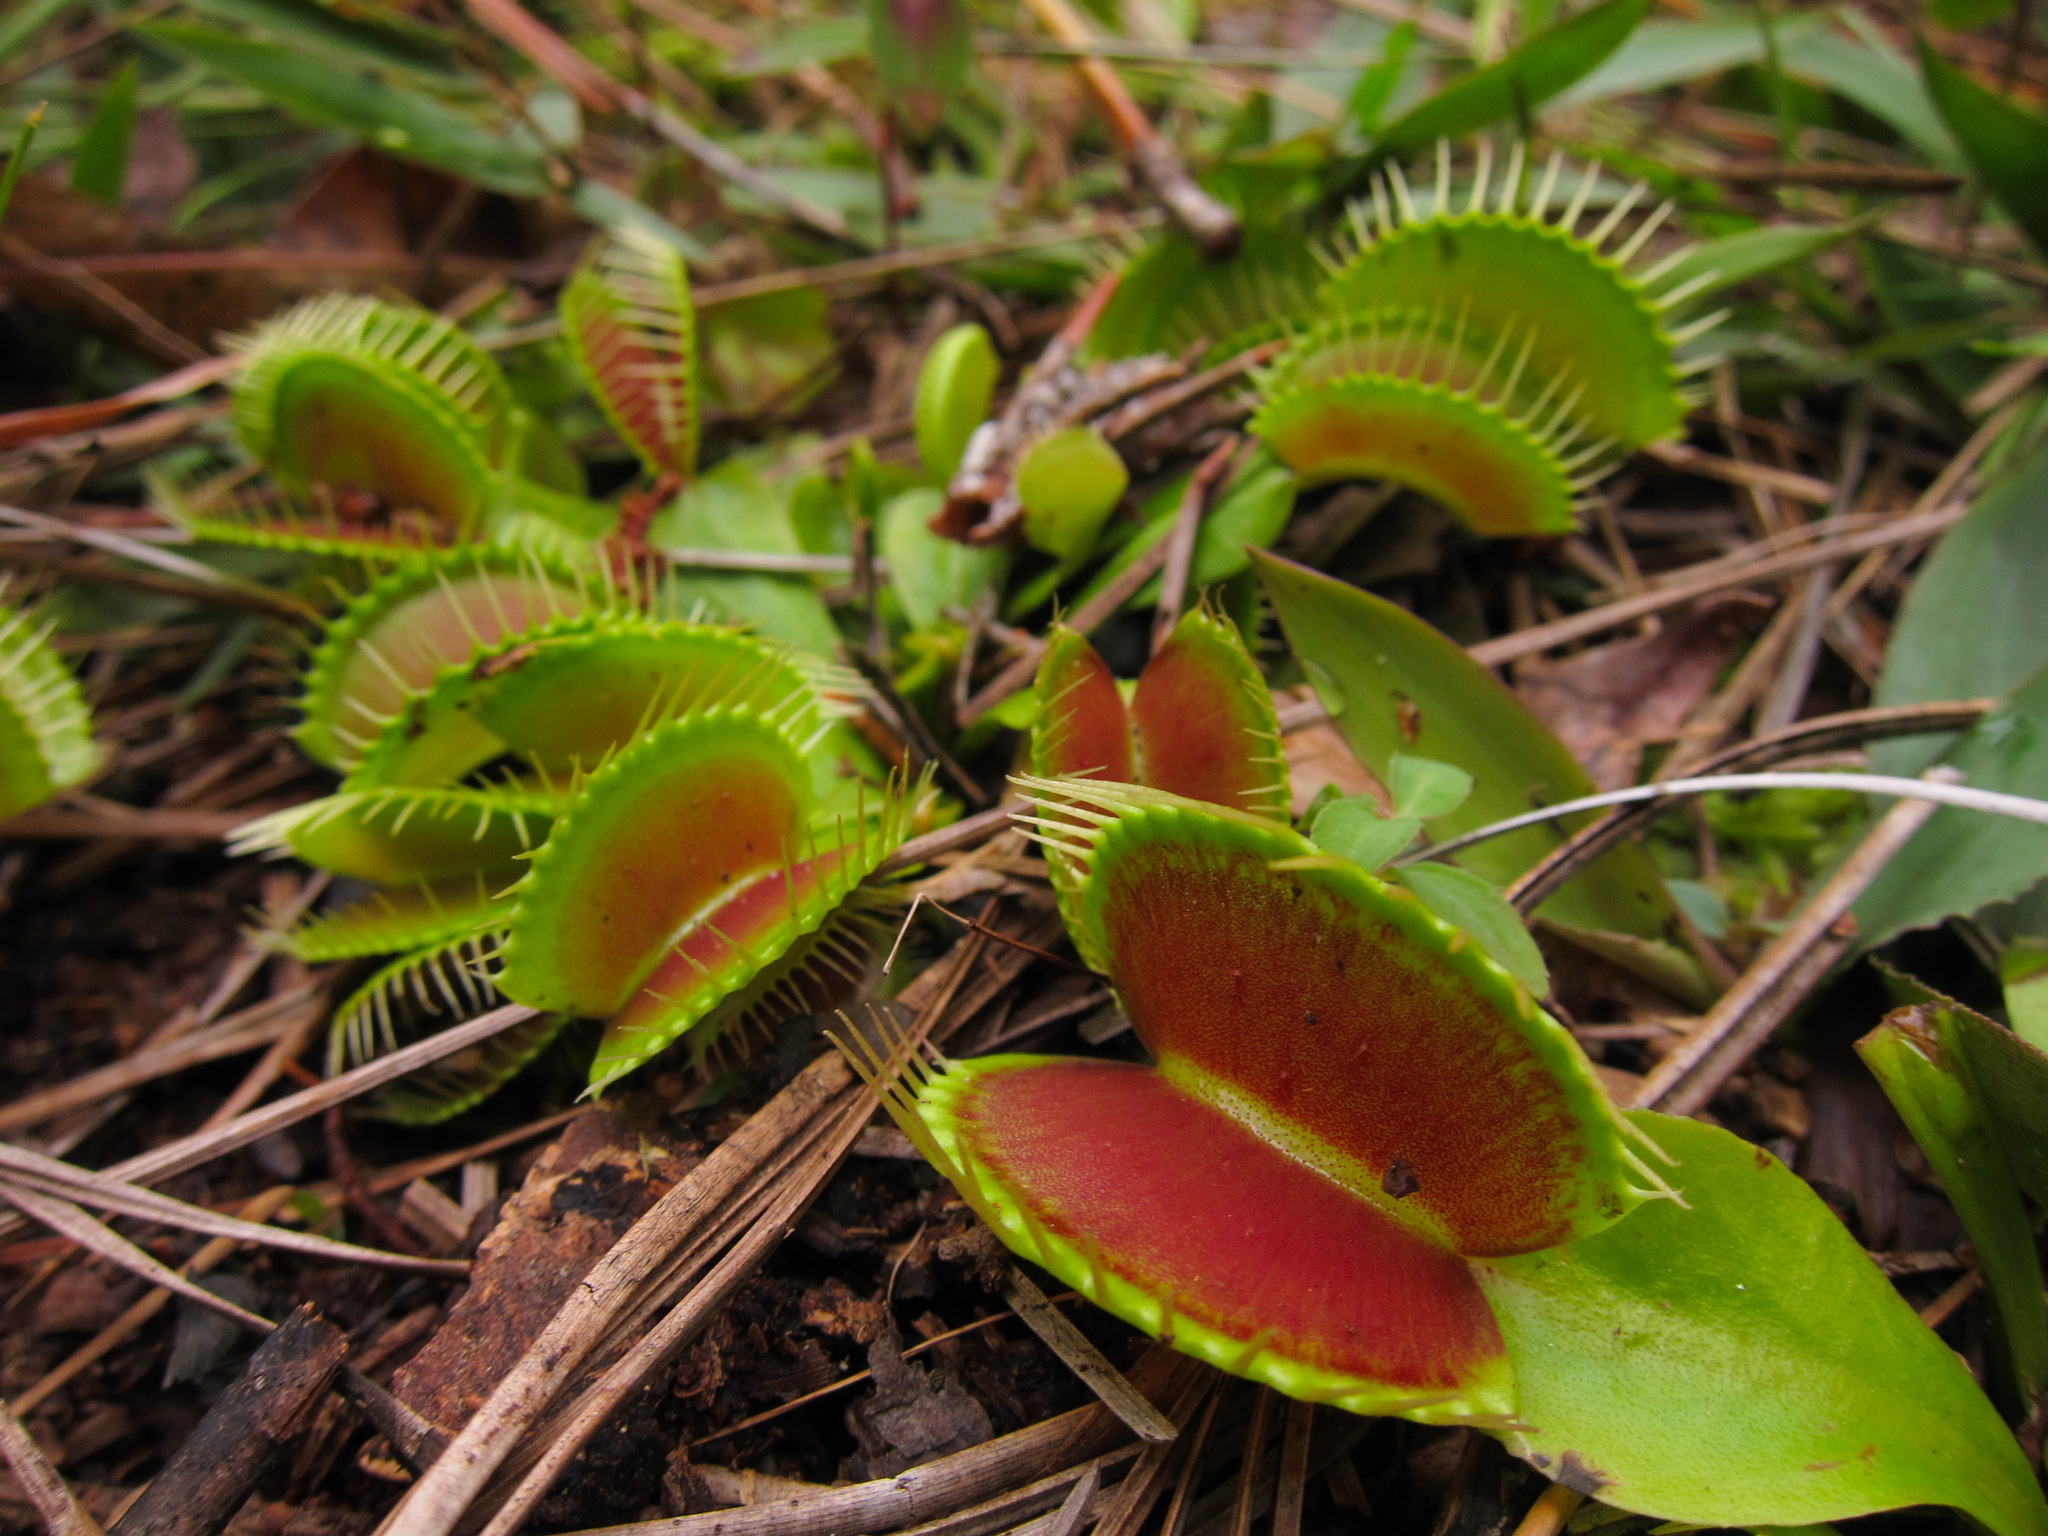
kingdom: Plantae
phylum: Tracheophyta
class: Magnoliopsida
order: Caryophyllales
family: Droseraceae
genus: Dionaea
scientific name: Dionaea muscipula
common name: Venus flytrap
